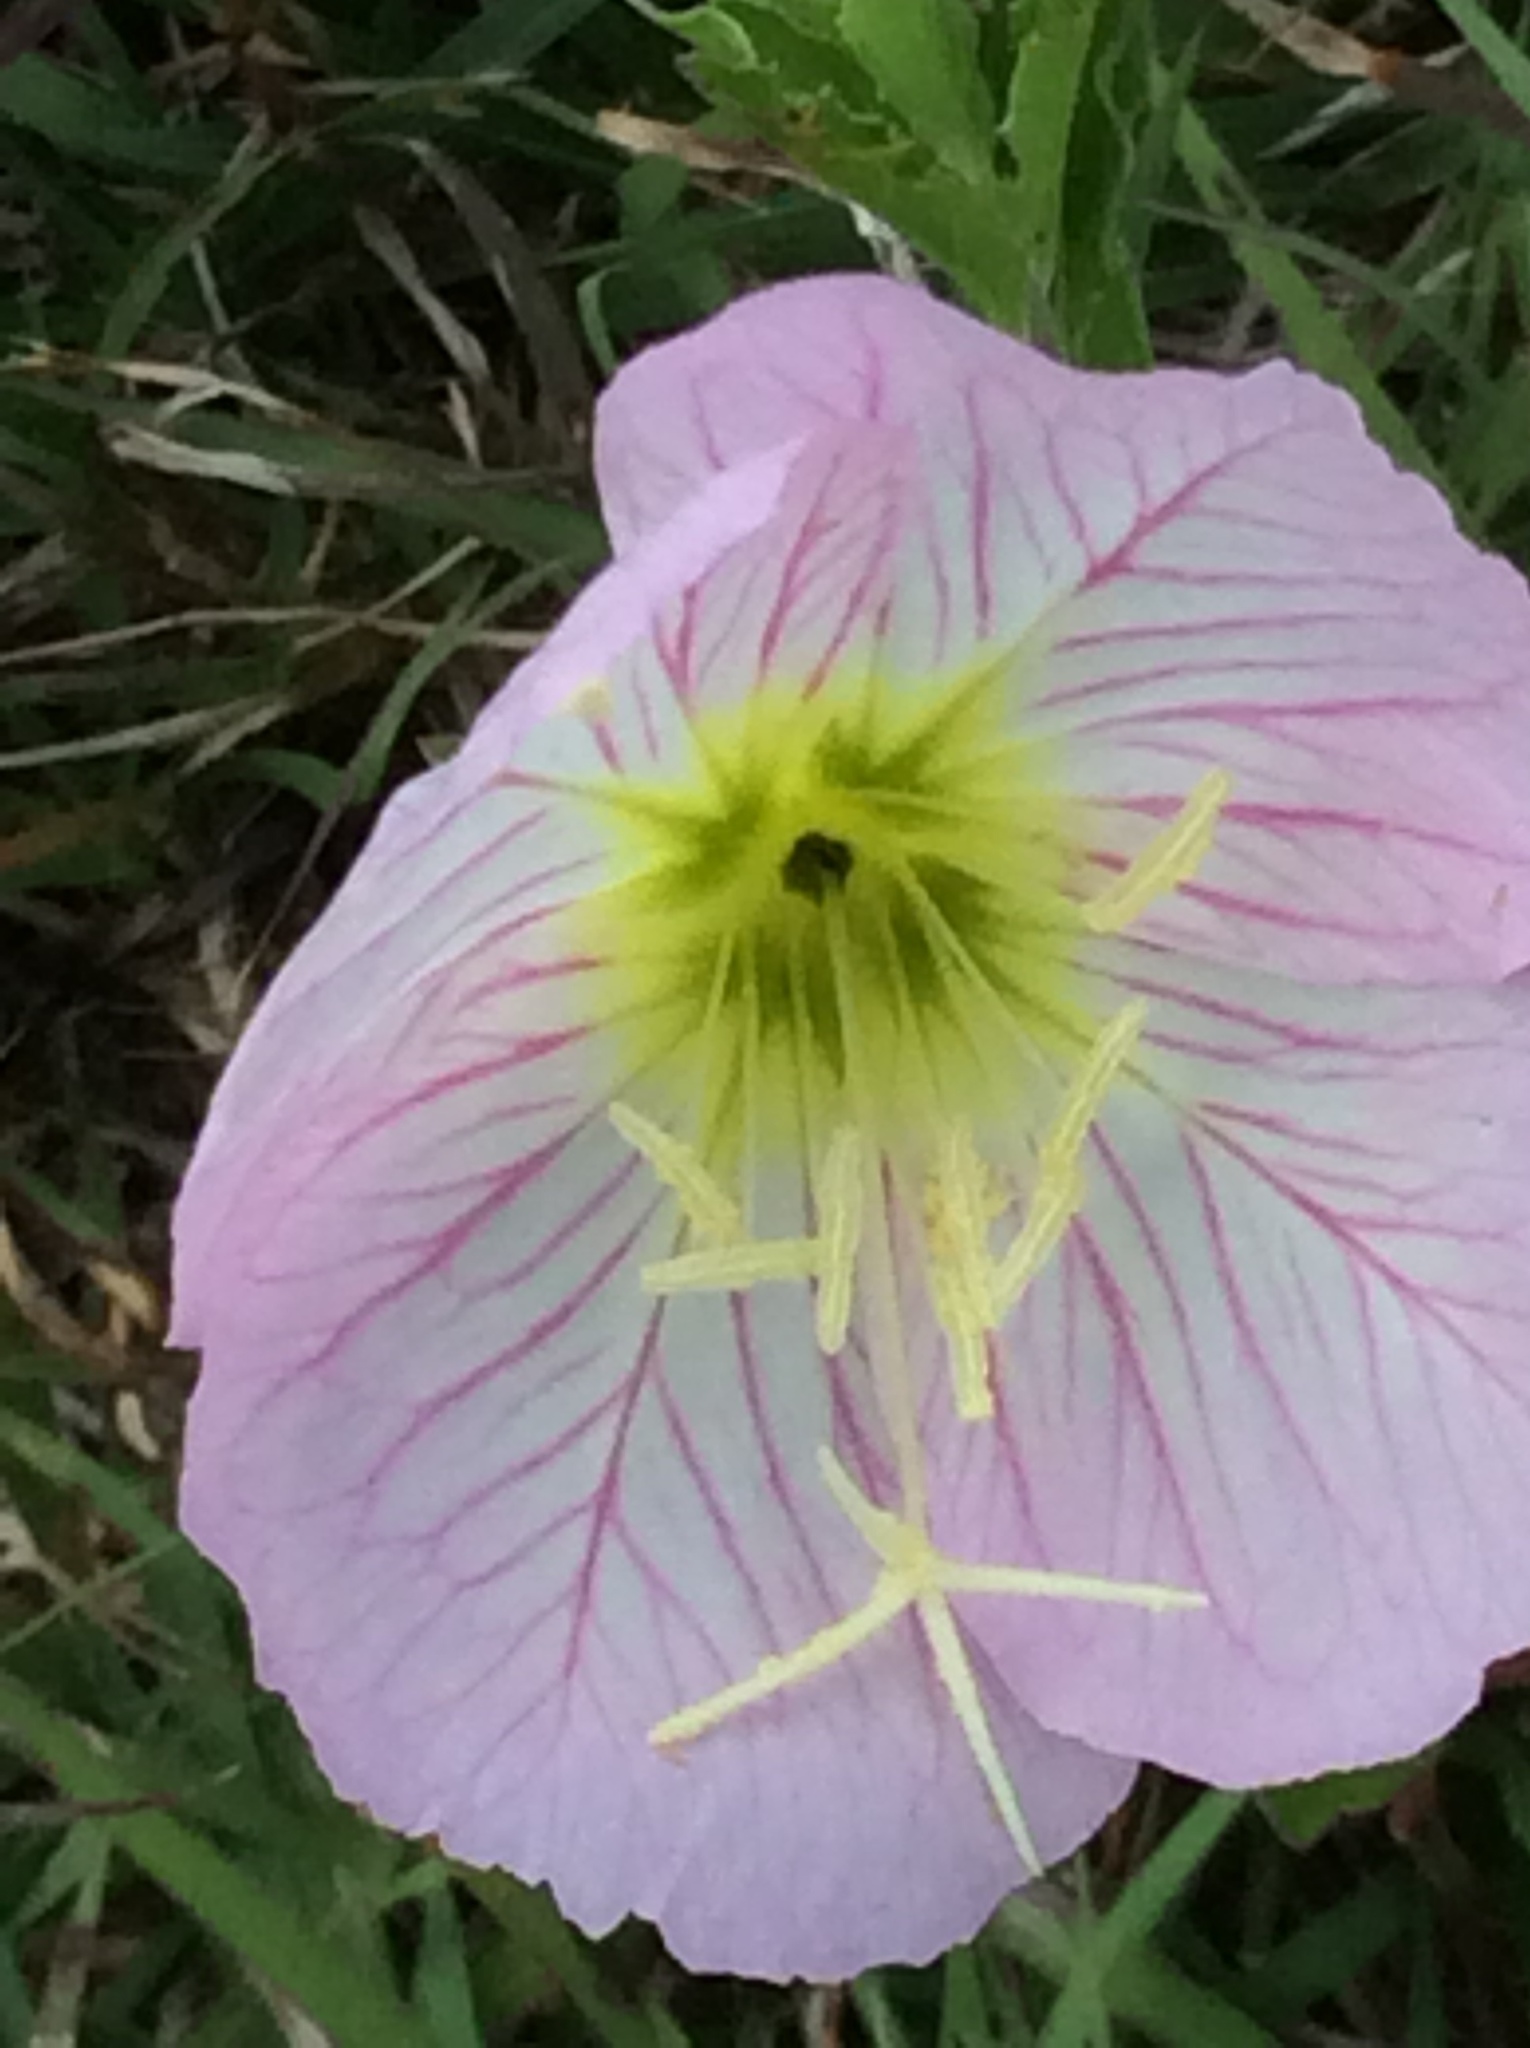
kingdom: Plantae
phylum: Tracheophyta
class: Magnoliopsida
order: Myrtales
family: Onagraceae
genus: Oenothera
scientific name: Oenothera speciosa
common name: White evening-primrose
